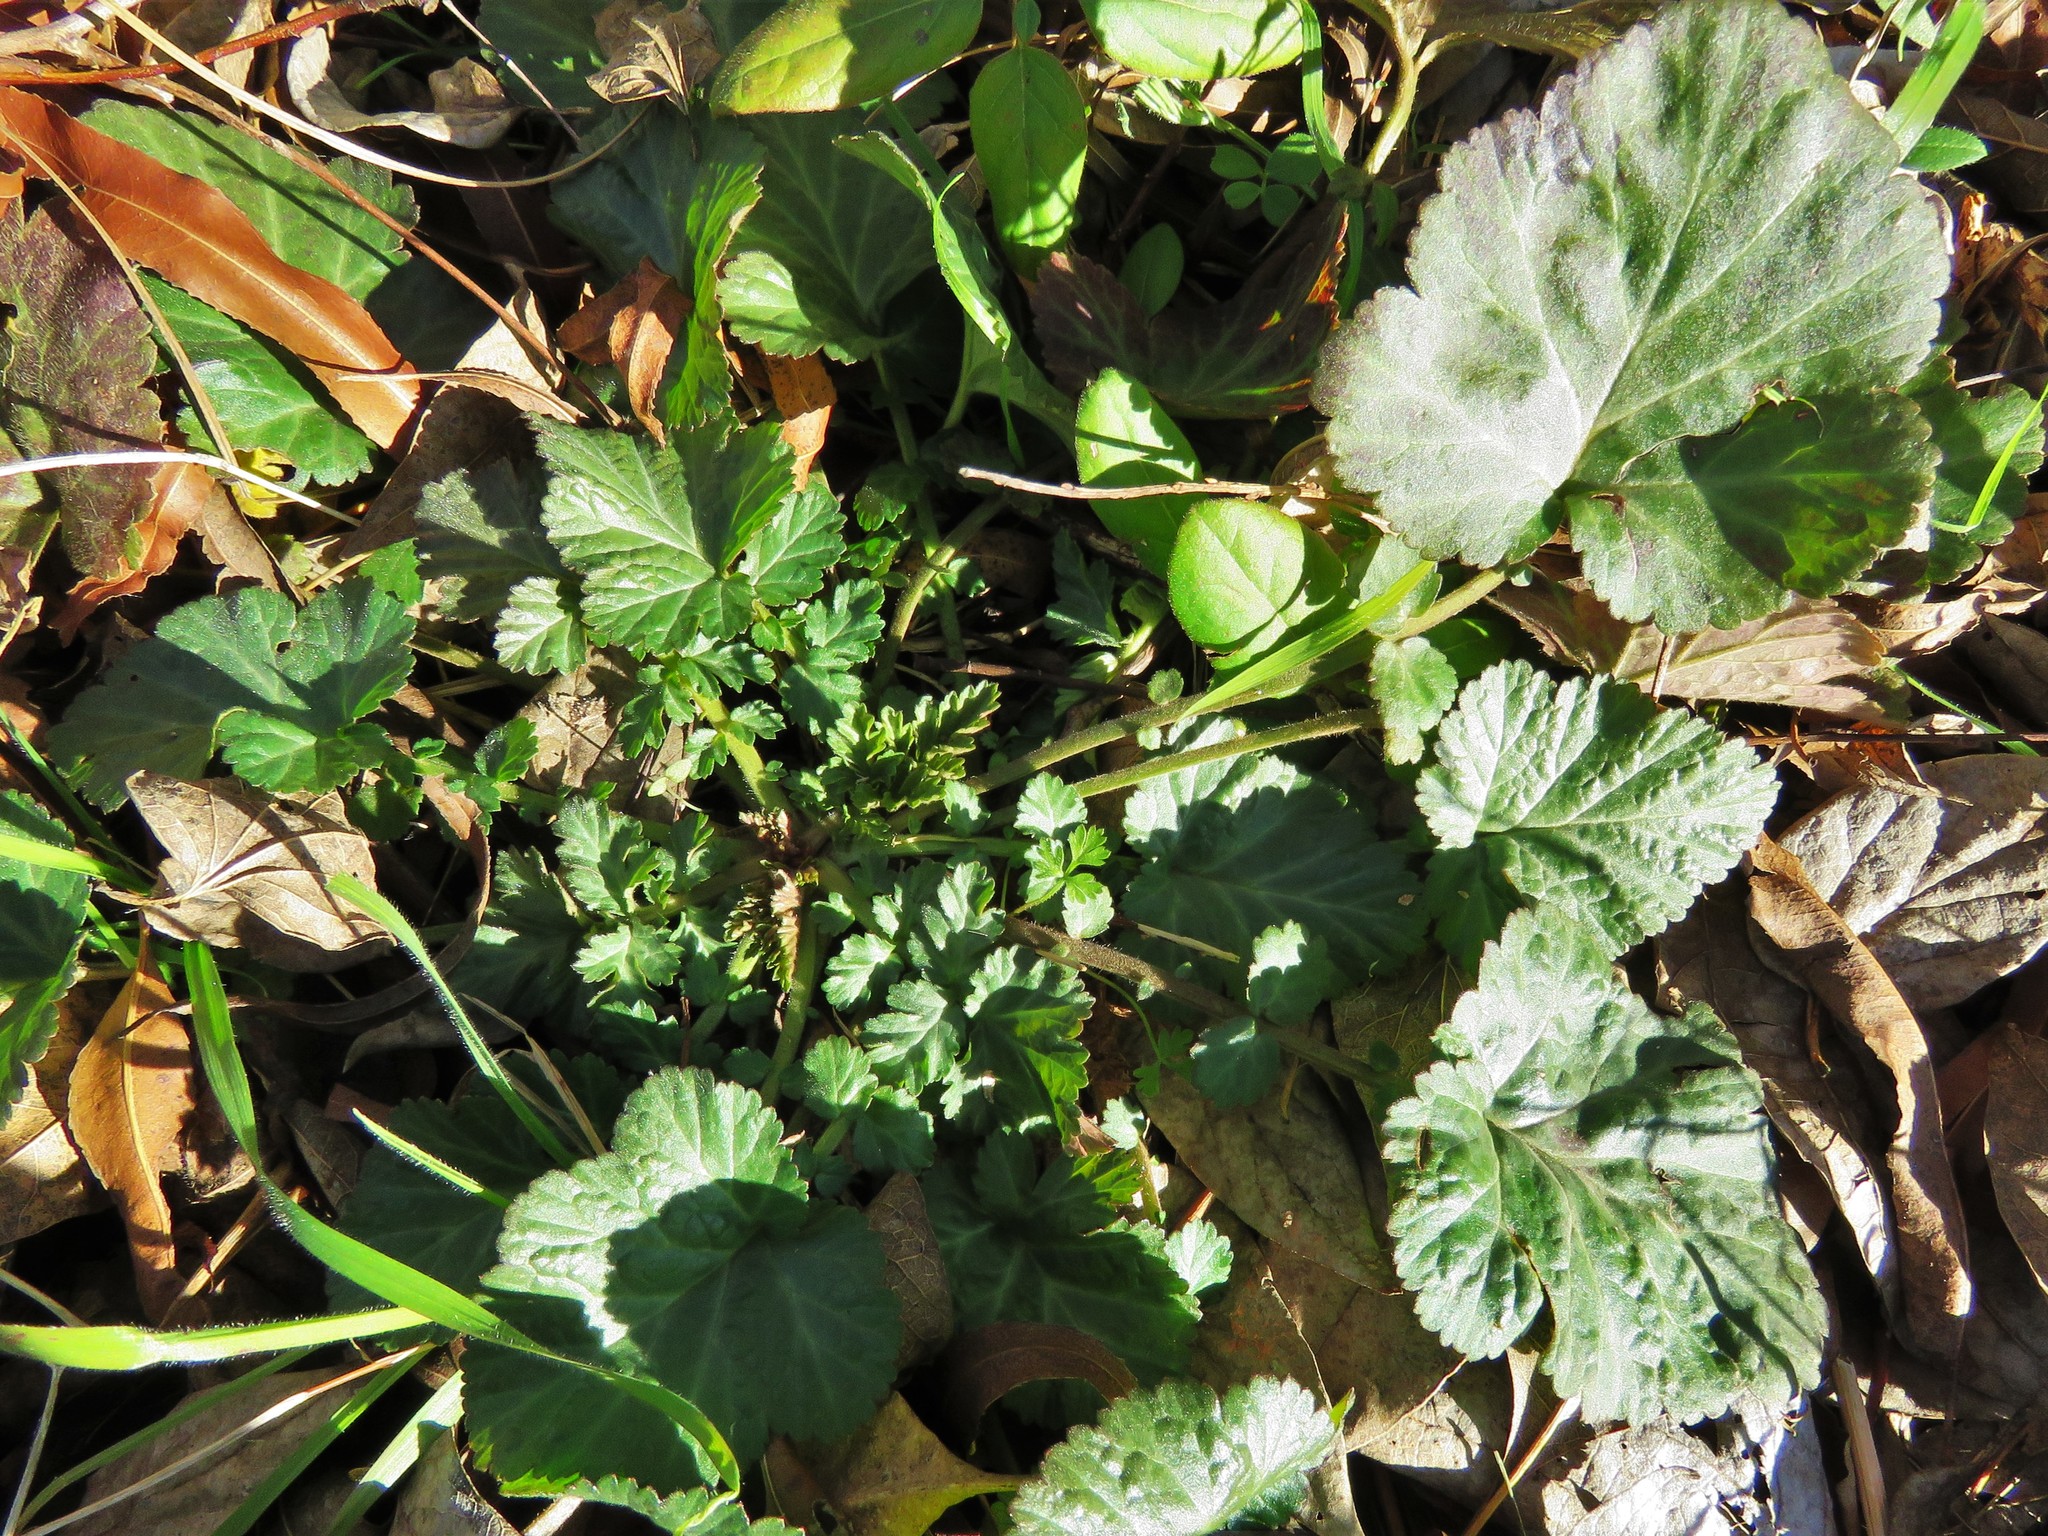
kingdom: Plantae
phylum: Tracheophyta
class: Magnoliopsida
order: Rosales
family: Rosaceae
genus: Geum
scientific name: Geum canadense
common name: White avens
